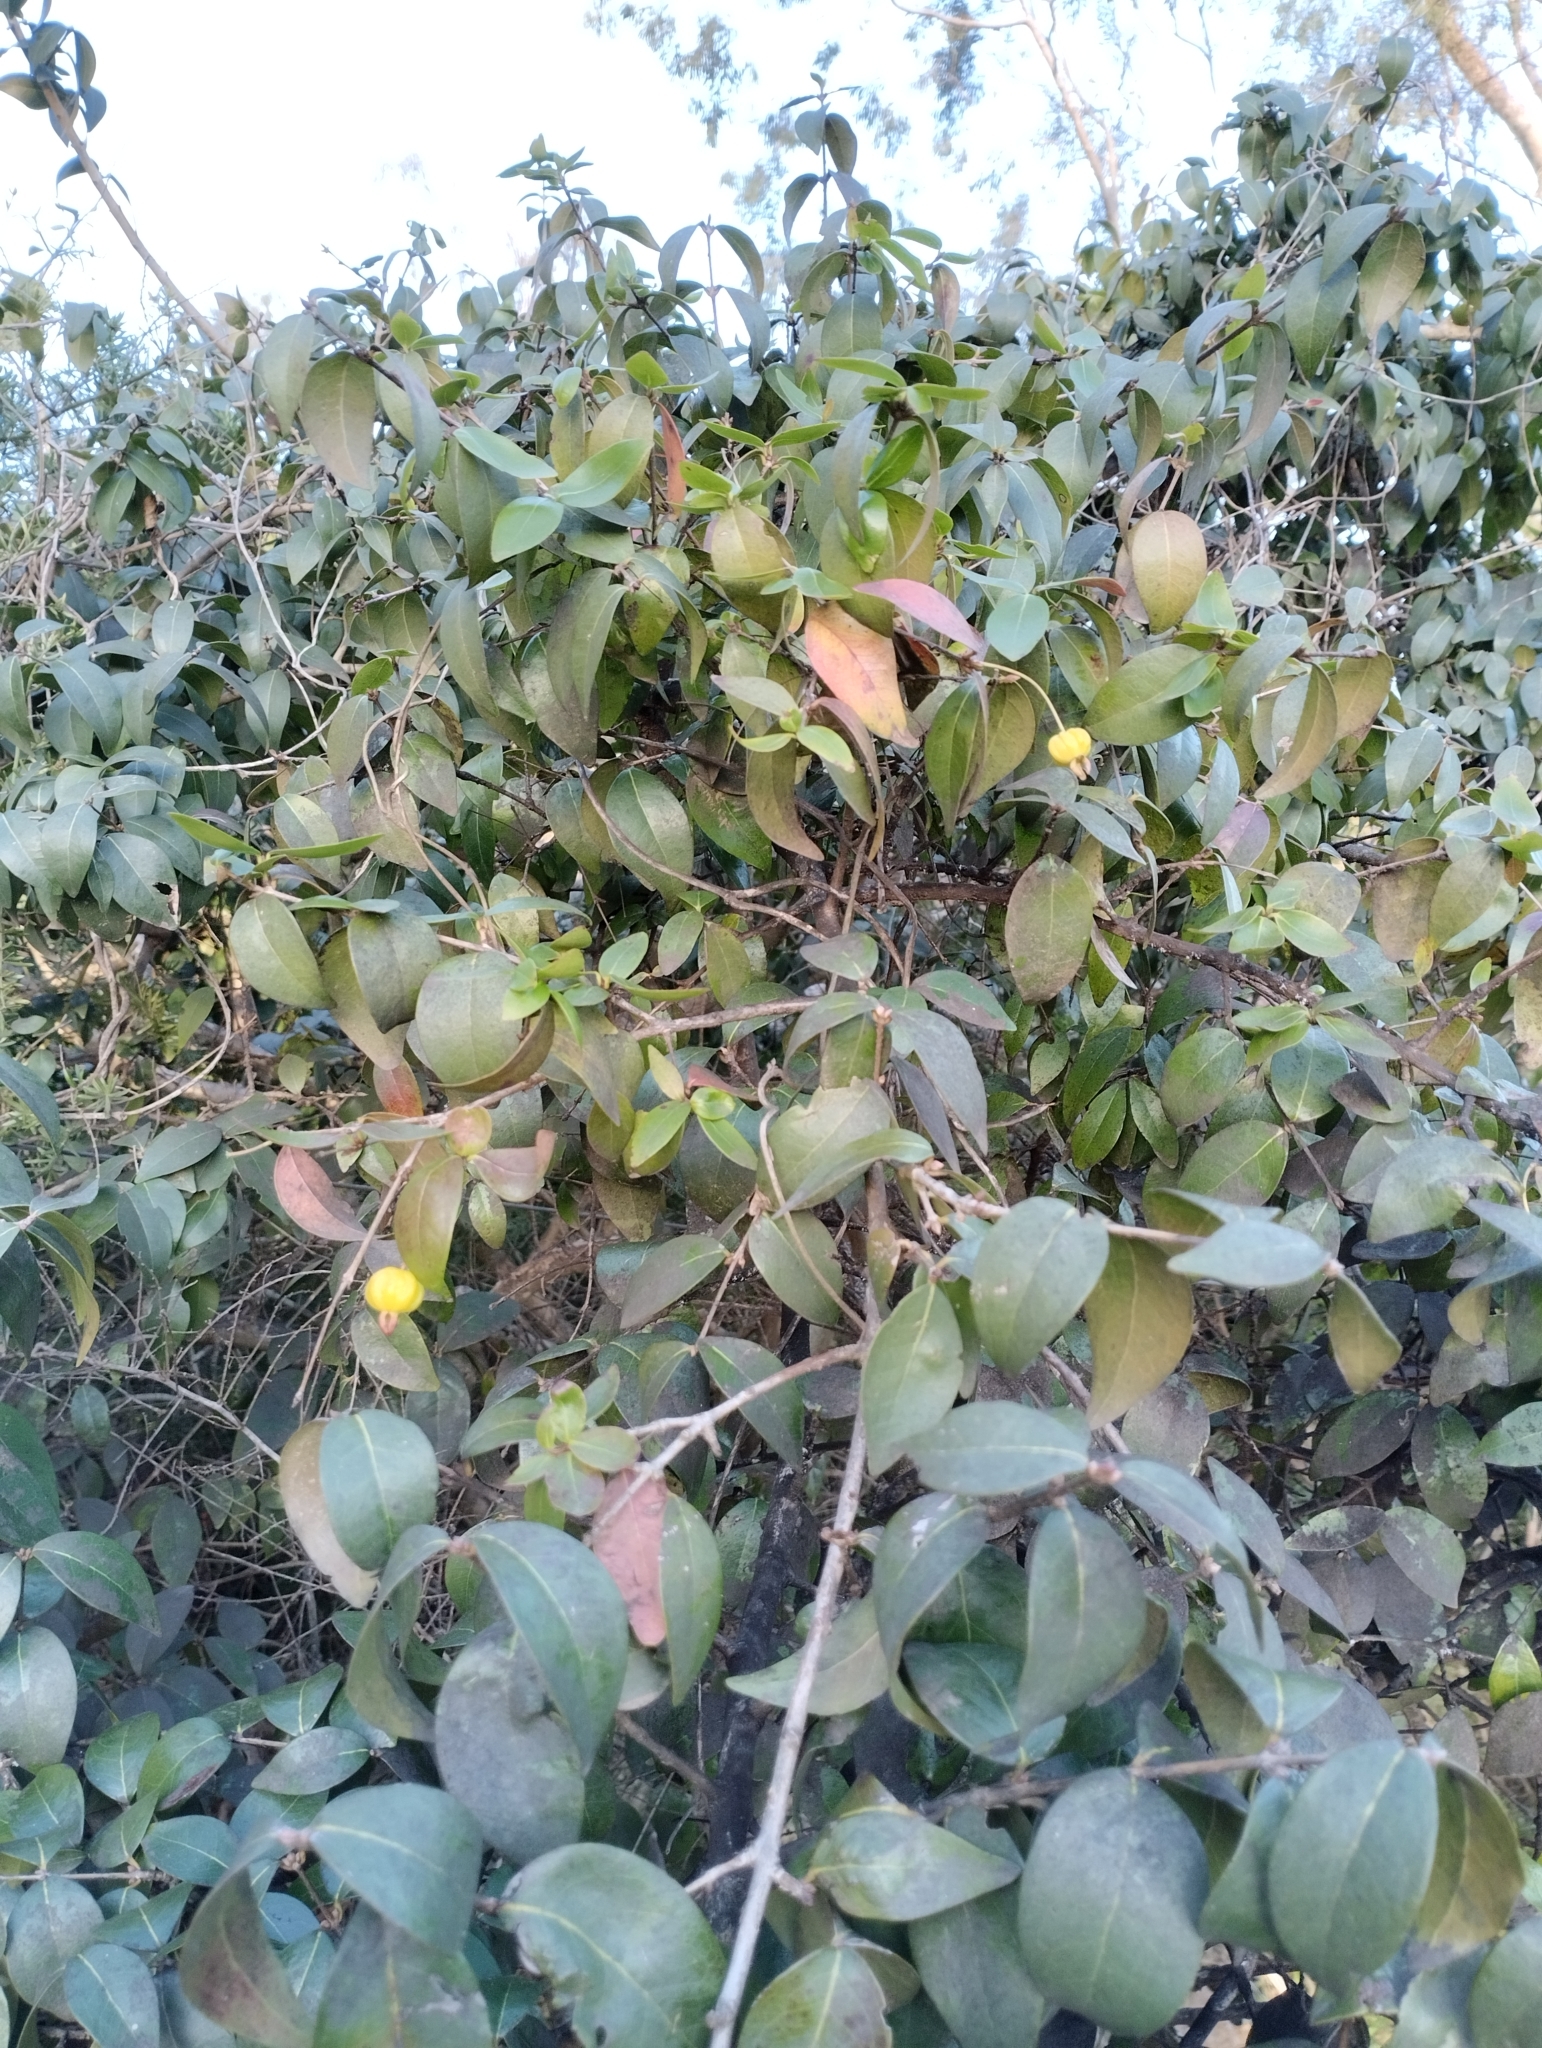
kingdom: Plantae
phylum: Tracheophyta
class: Magnoliopsida
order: Myrtales
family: Myrtaceae
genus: Eugenia
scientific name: Eugenia uniflora
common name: Surinam cherry
